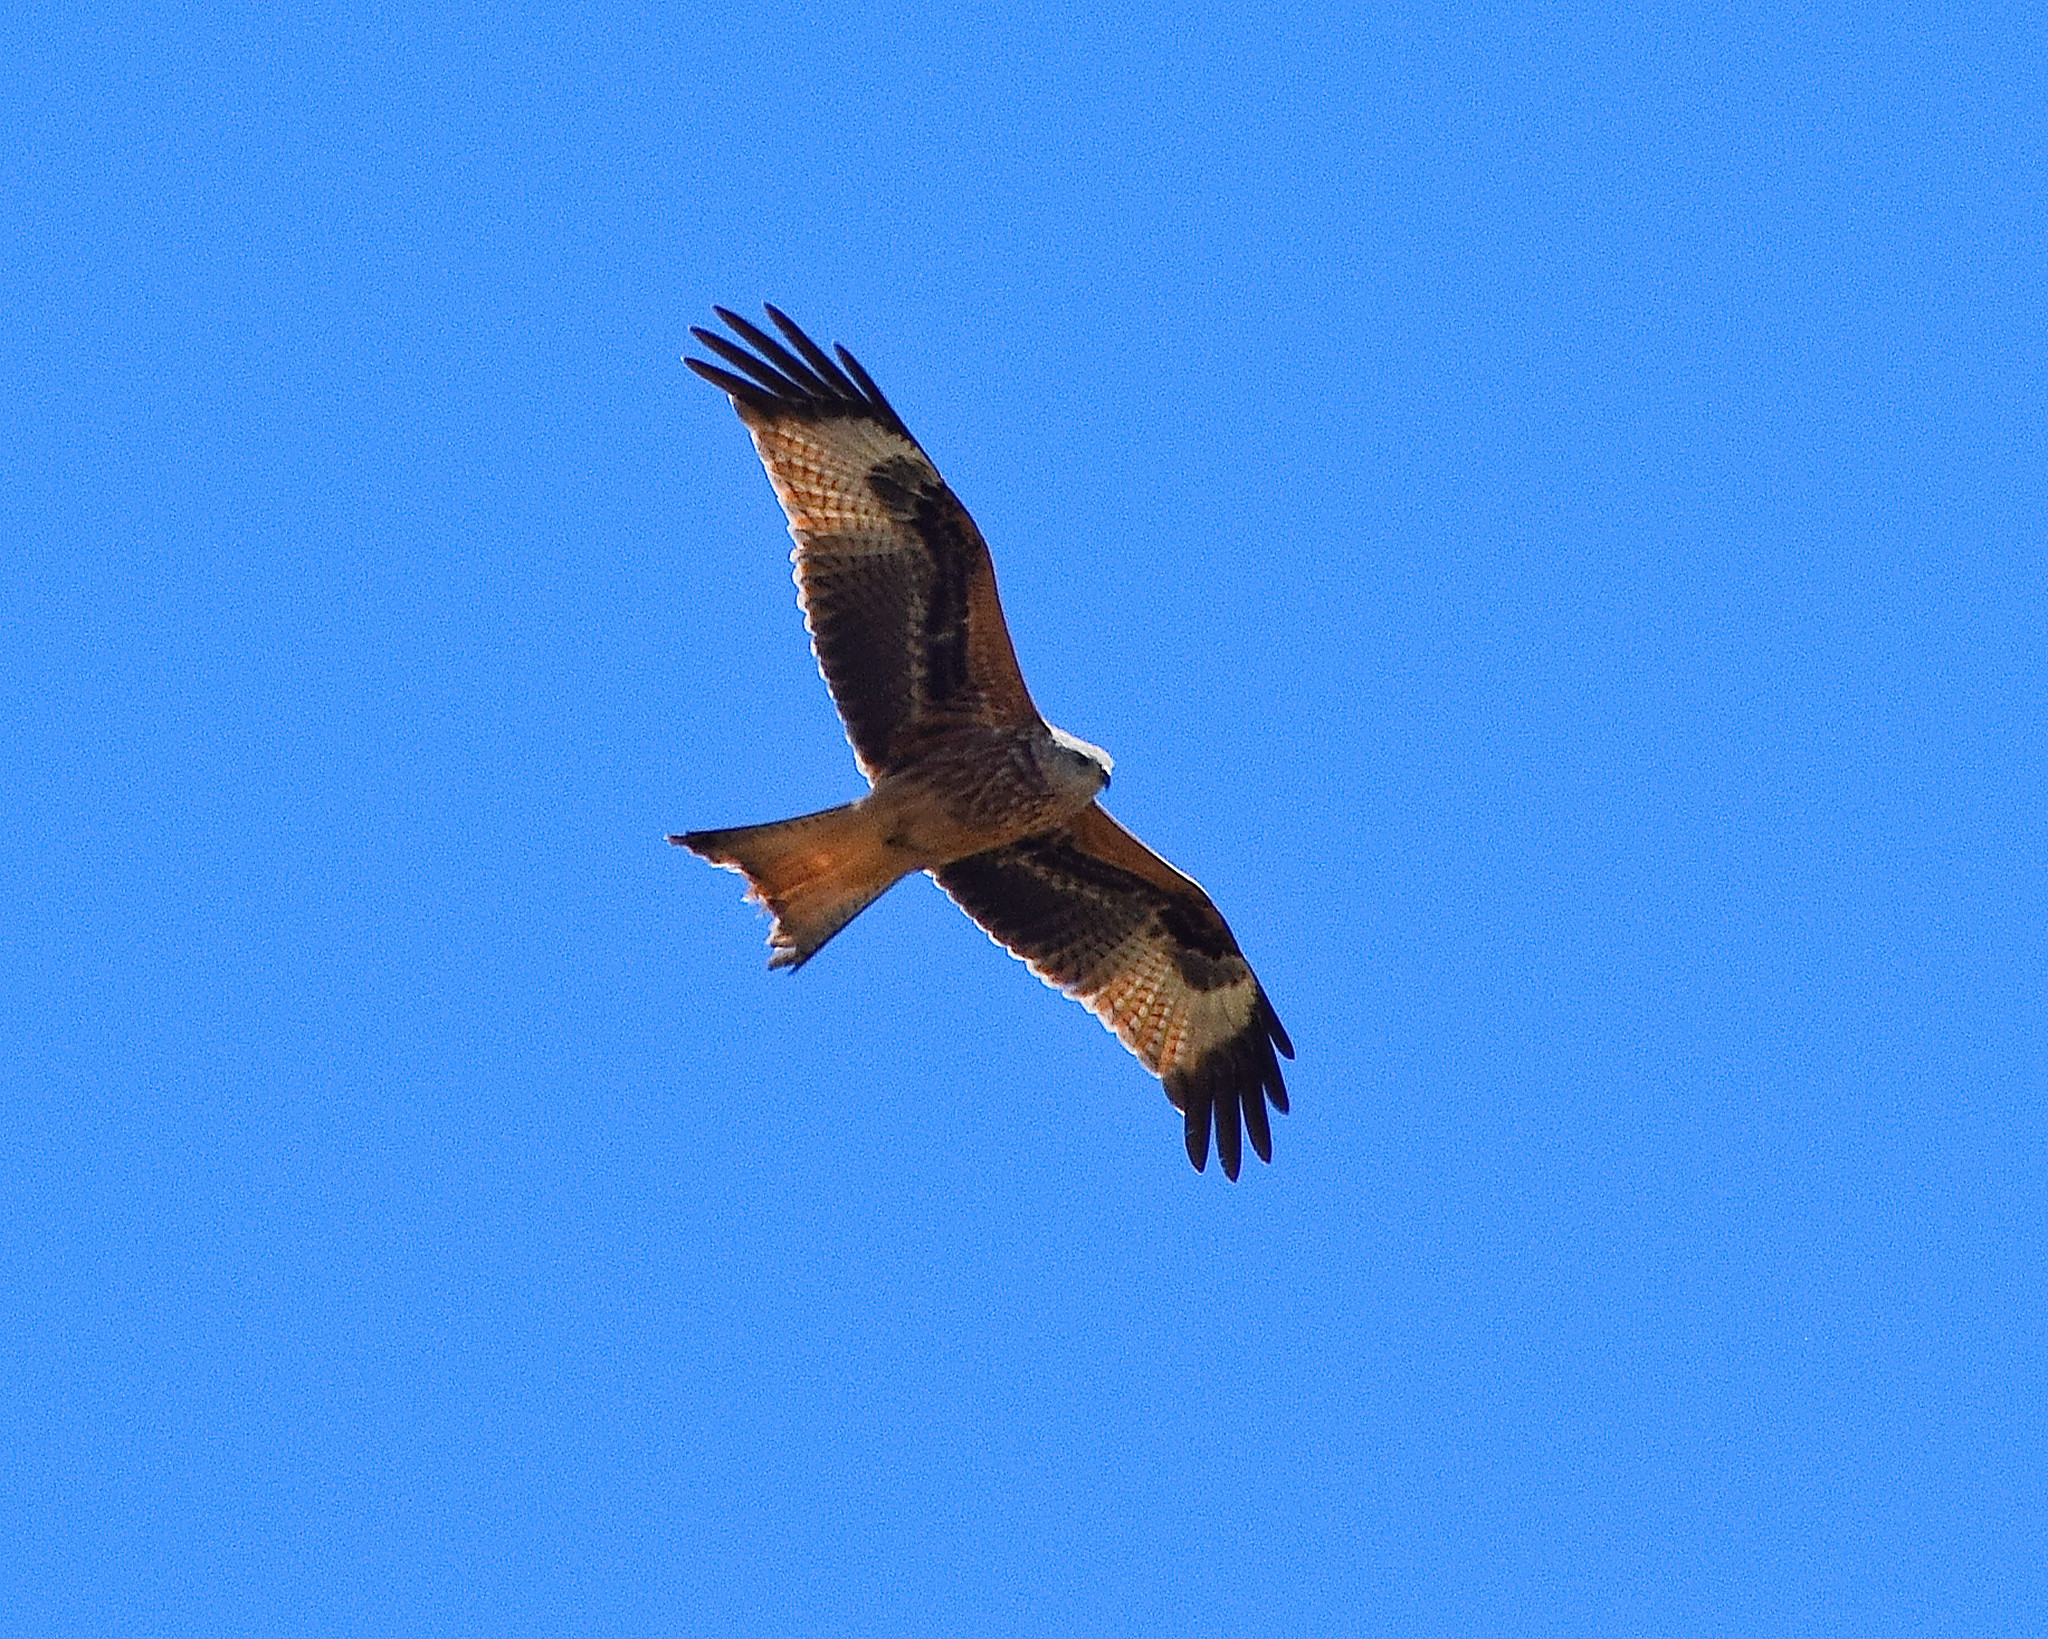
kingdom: Animalia
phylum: Chordata
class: Aves
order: Accipitriformes
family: Accipitridae
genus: Milvus
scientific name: Milvus milvus
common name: Red kite
